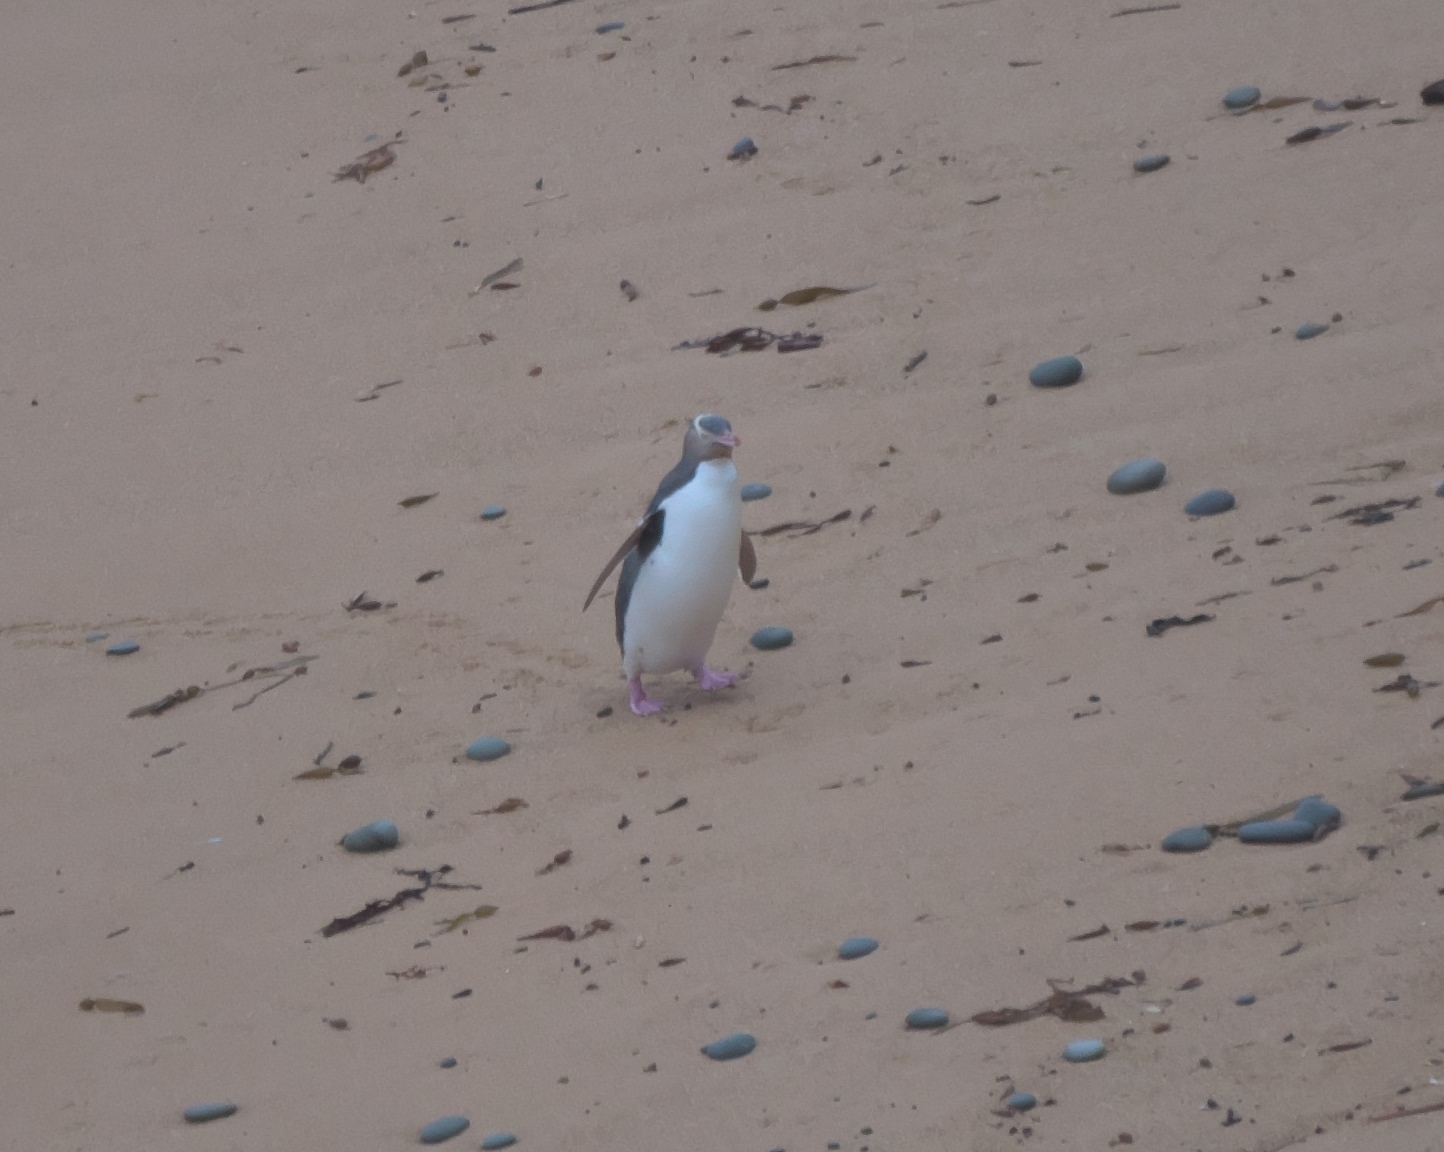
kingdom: Animalia
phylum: Chordata
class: Aves
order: Sphenisciformes
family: Spheniscidae
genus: Megadyptes
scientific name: Megadyptes antipodes
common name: Yellow-eyed penguin
